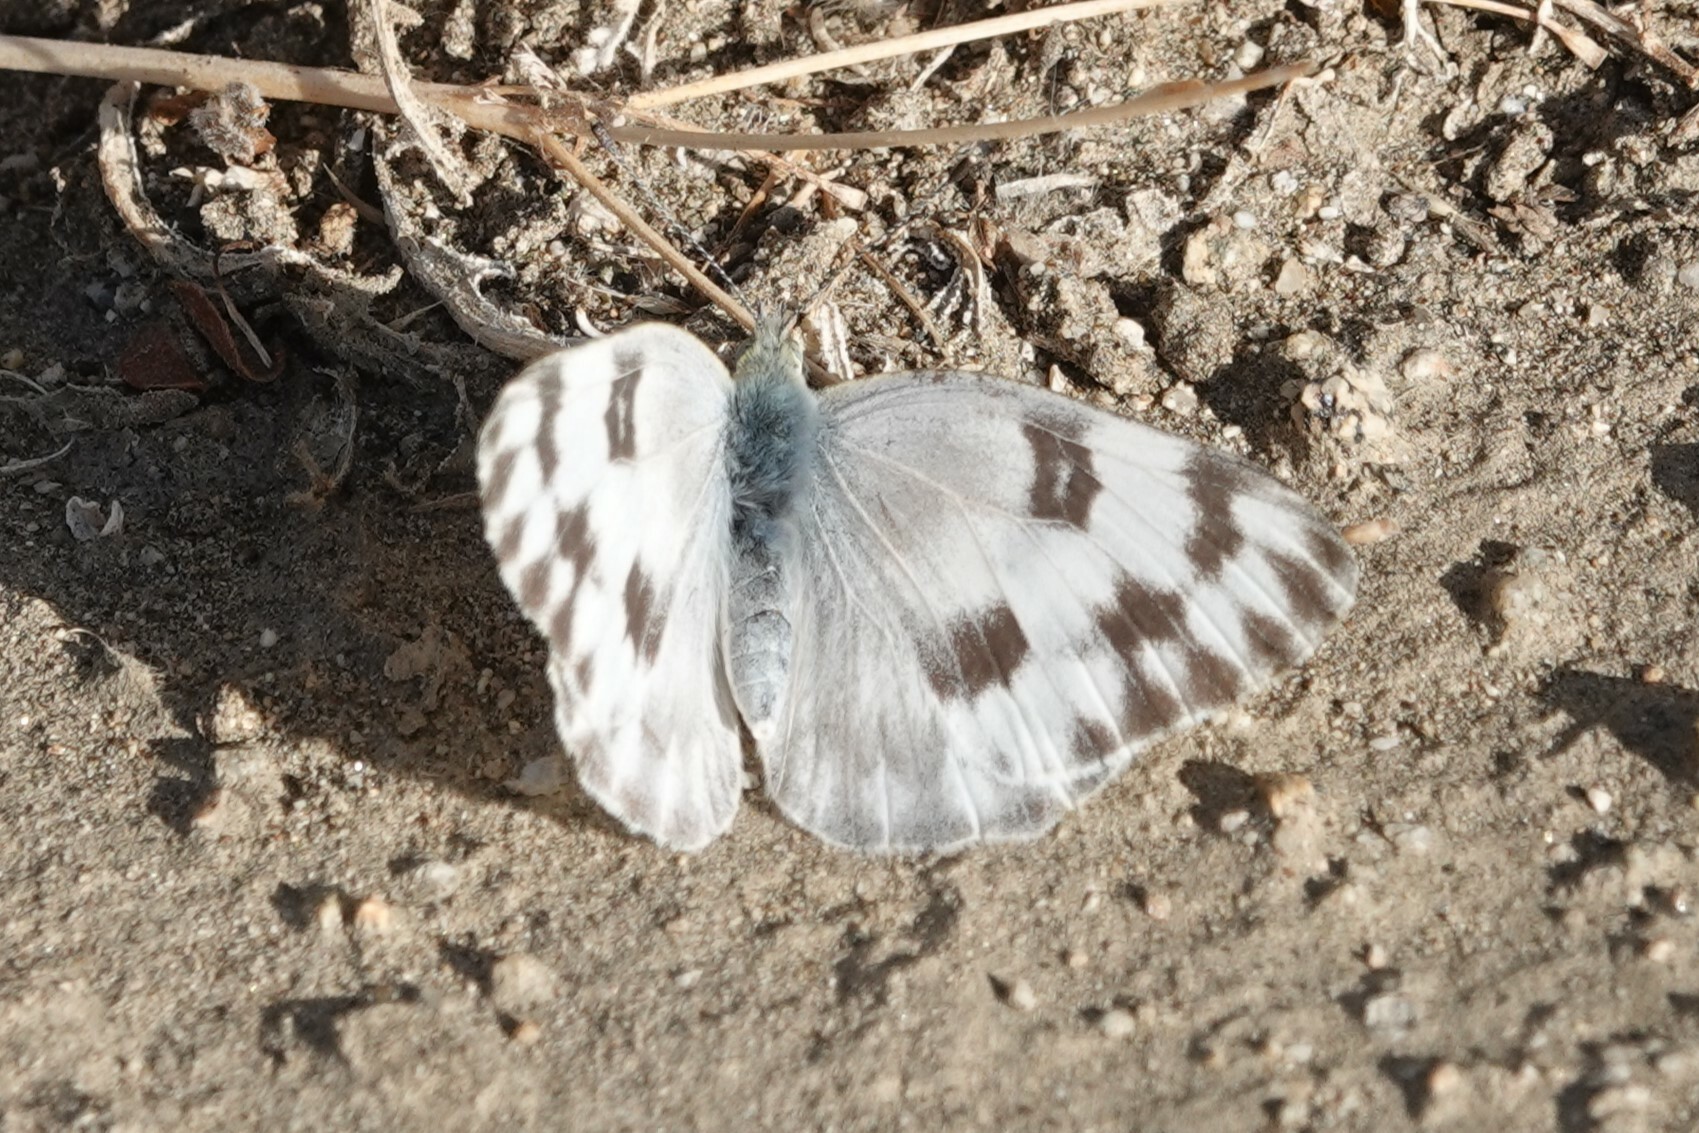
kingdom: Animalia
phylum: Arthropoda
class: Insecta
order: Lepidoptera
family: Pieridae
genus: Pontia
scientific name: Pontia protodice
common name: Checkered white
